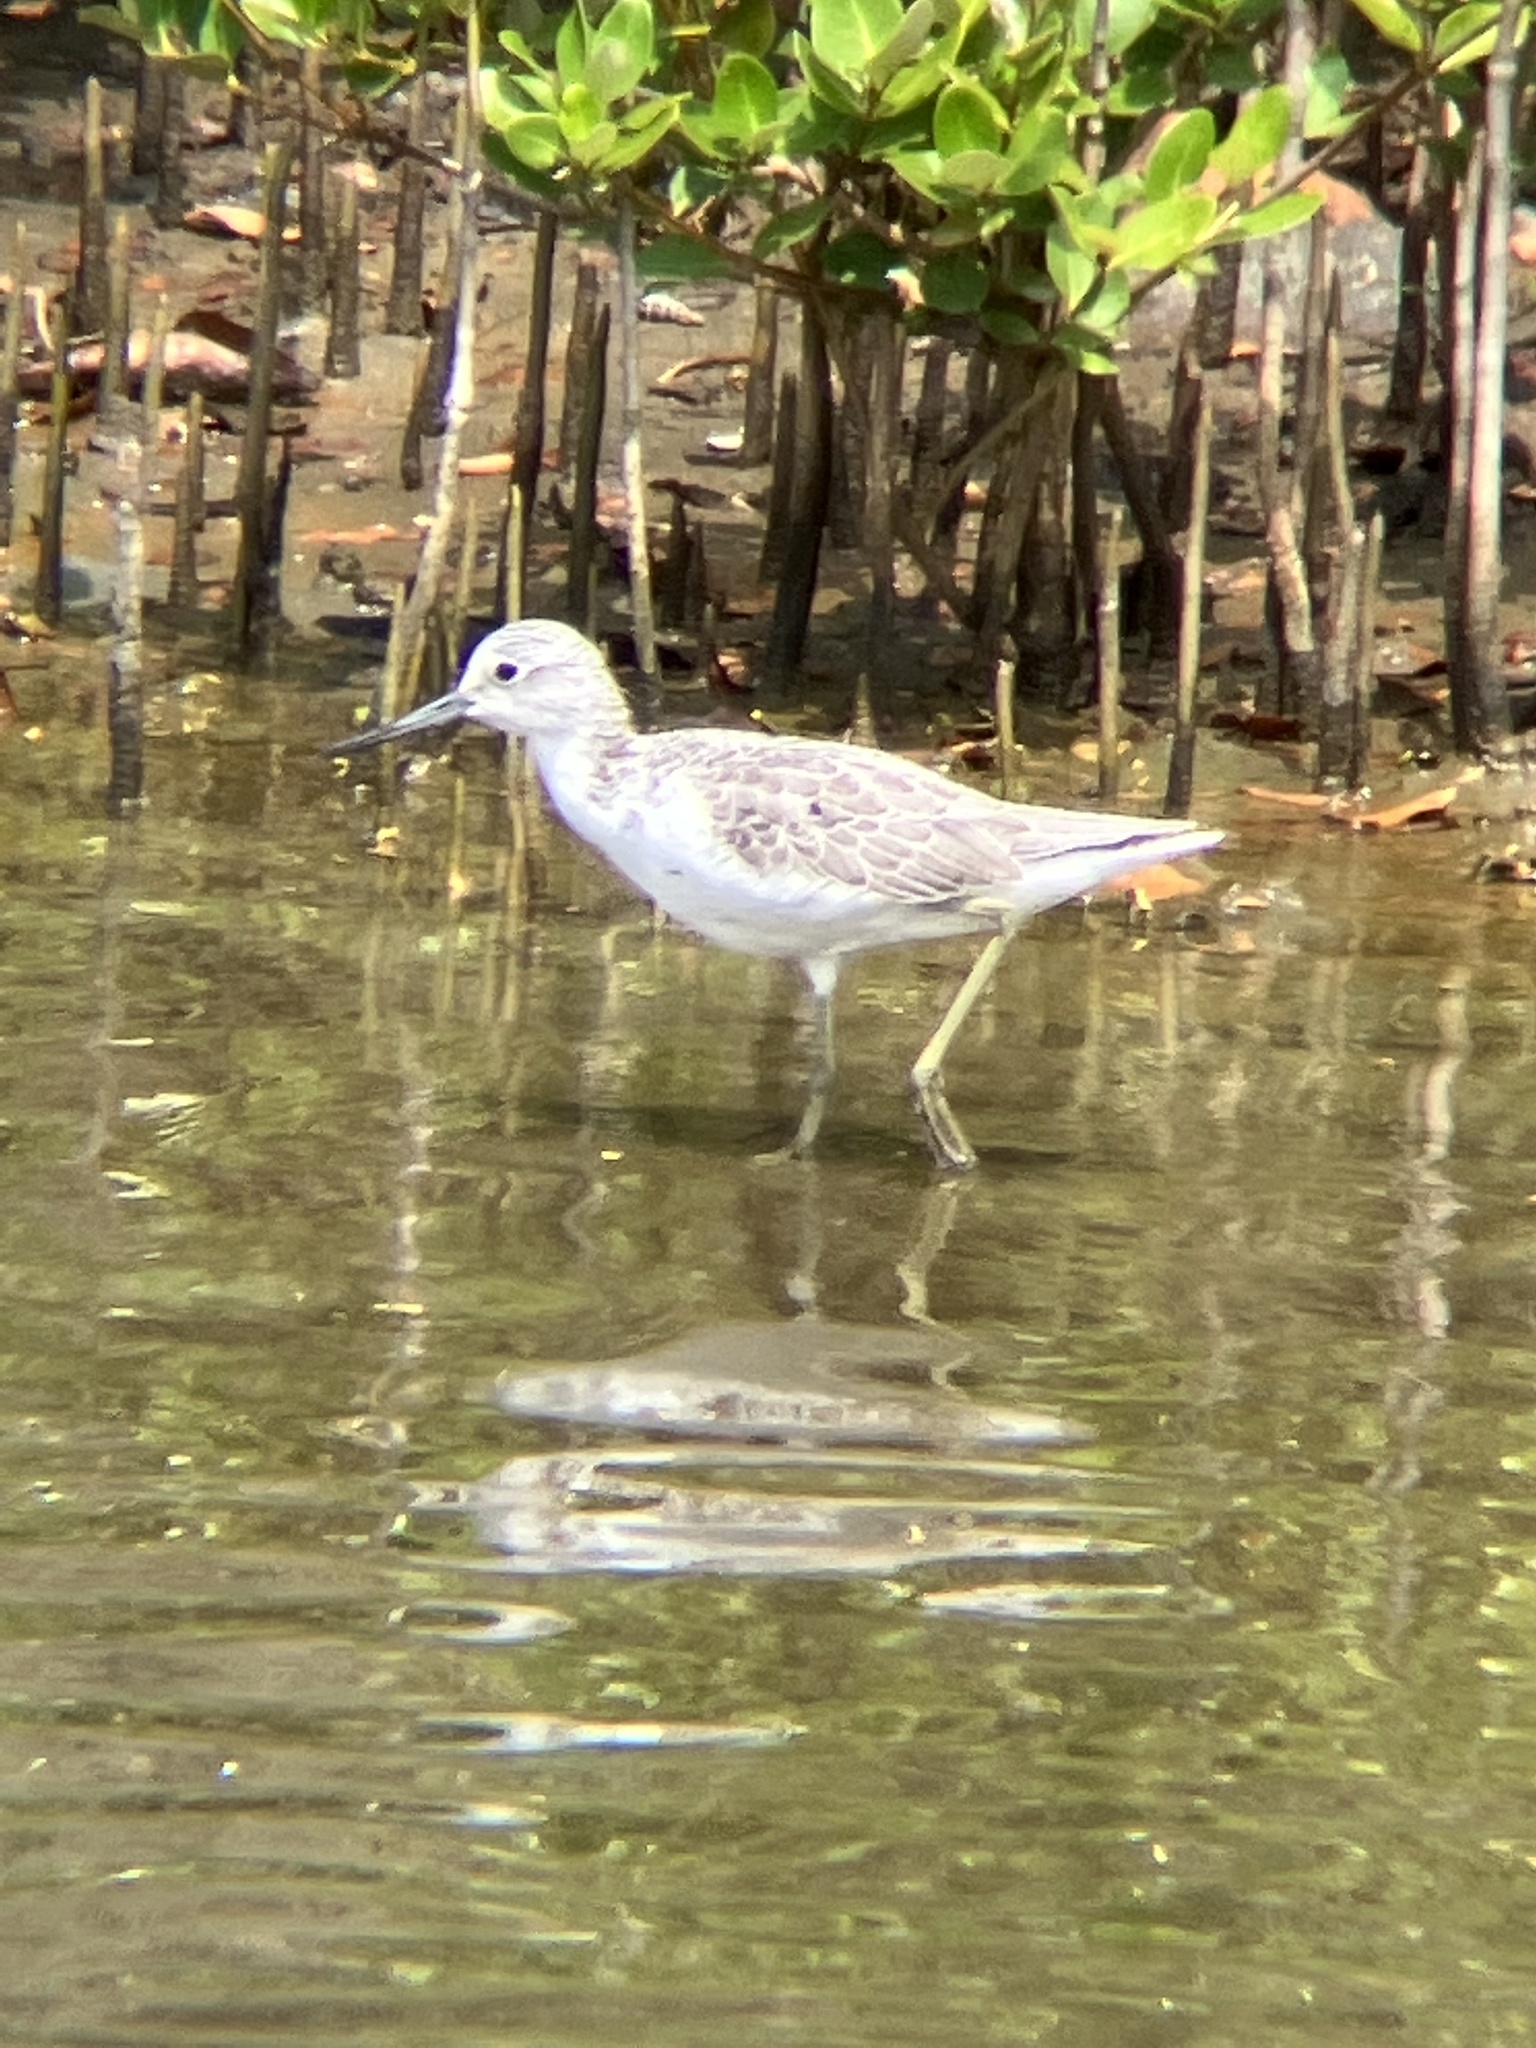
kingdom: Animalia
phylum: Chordata
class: Aves
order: Charadriiformes
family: Scolopacidae
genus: Tringa
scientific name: Tringa nebularia
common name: Common greenshank
